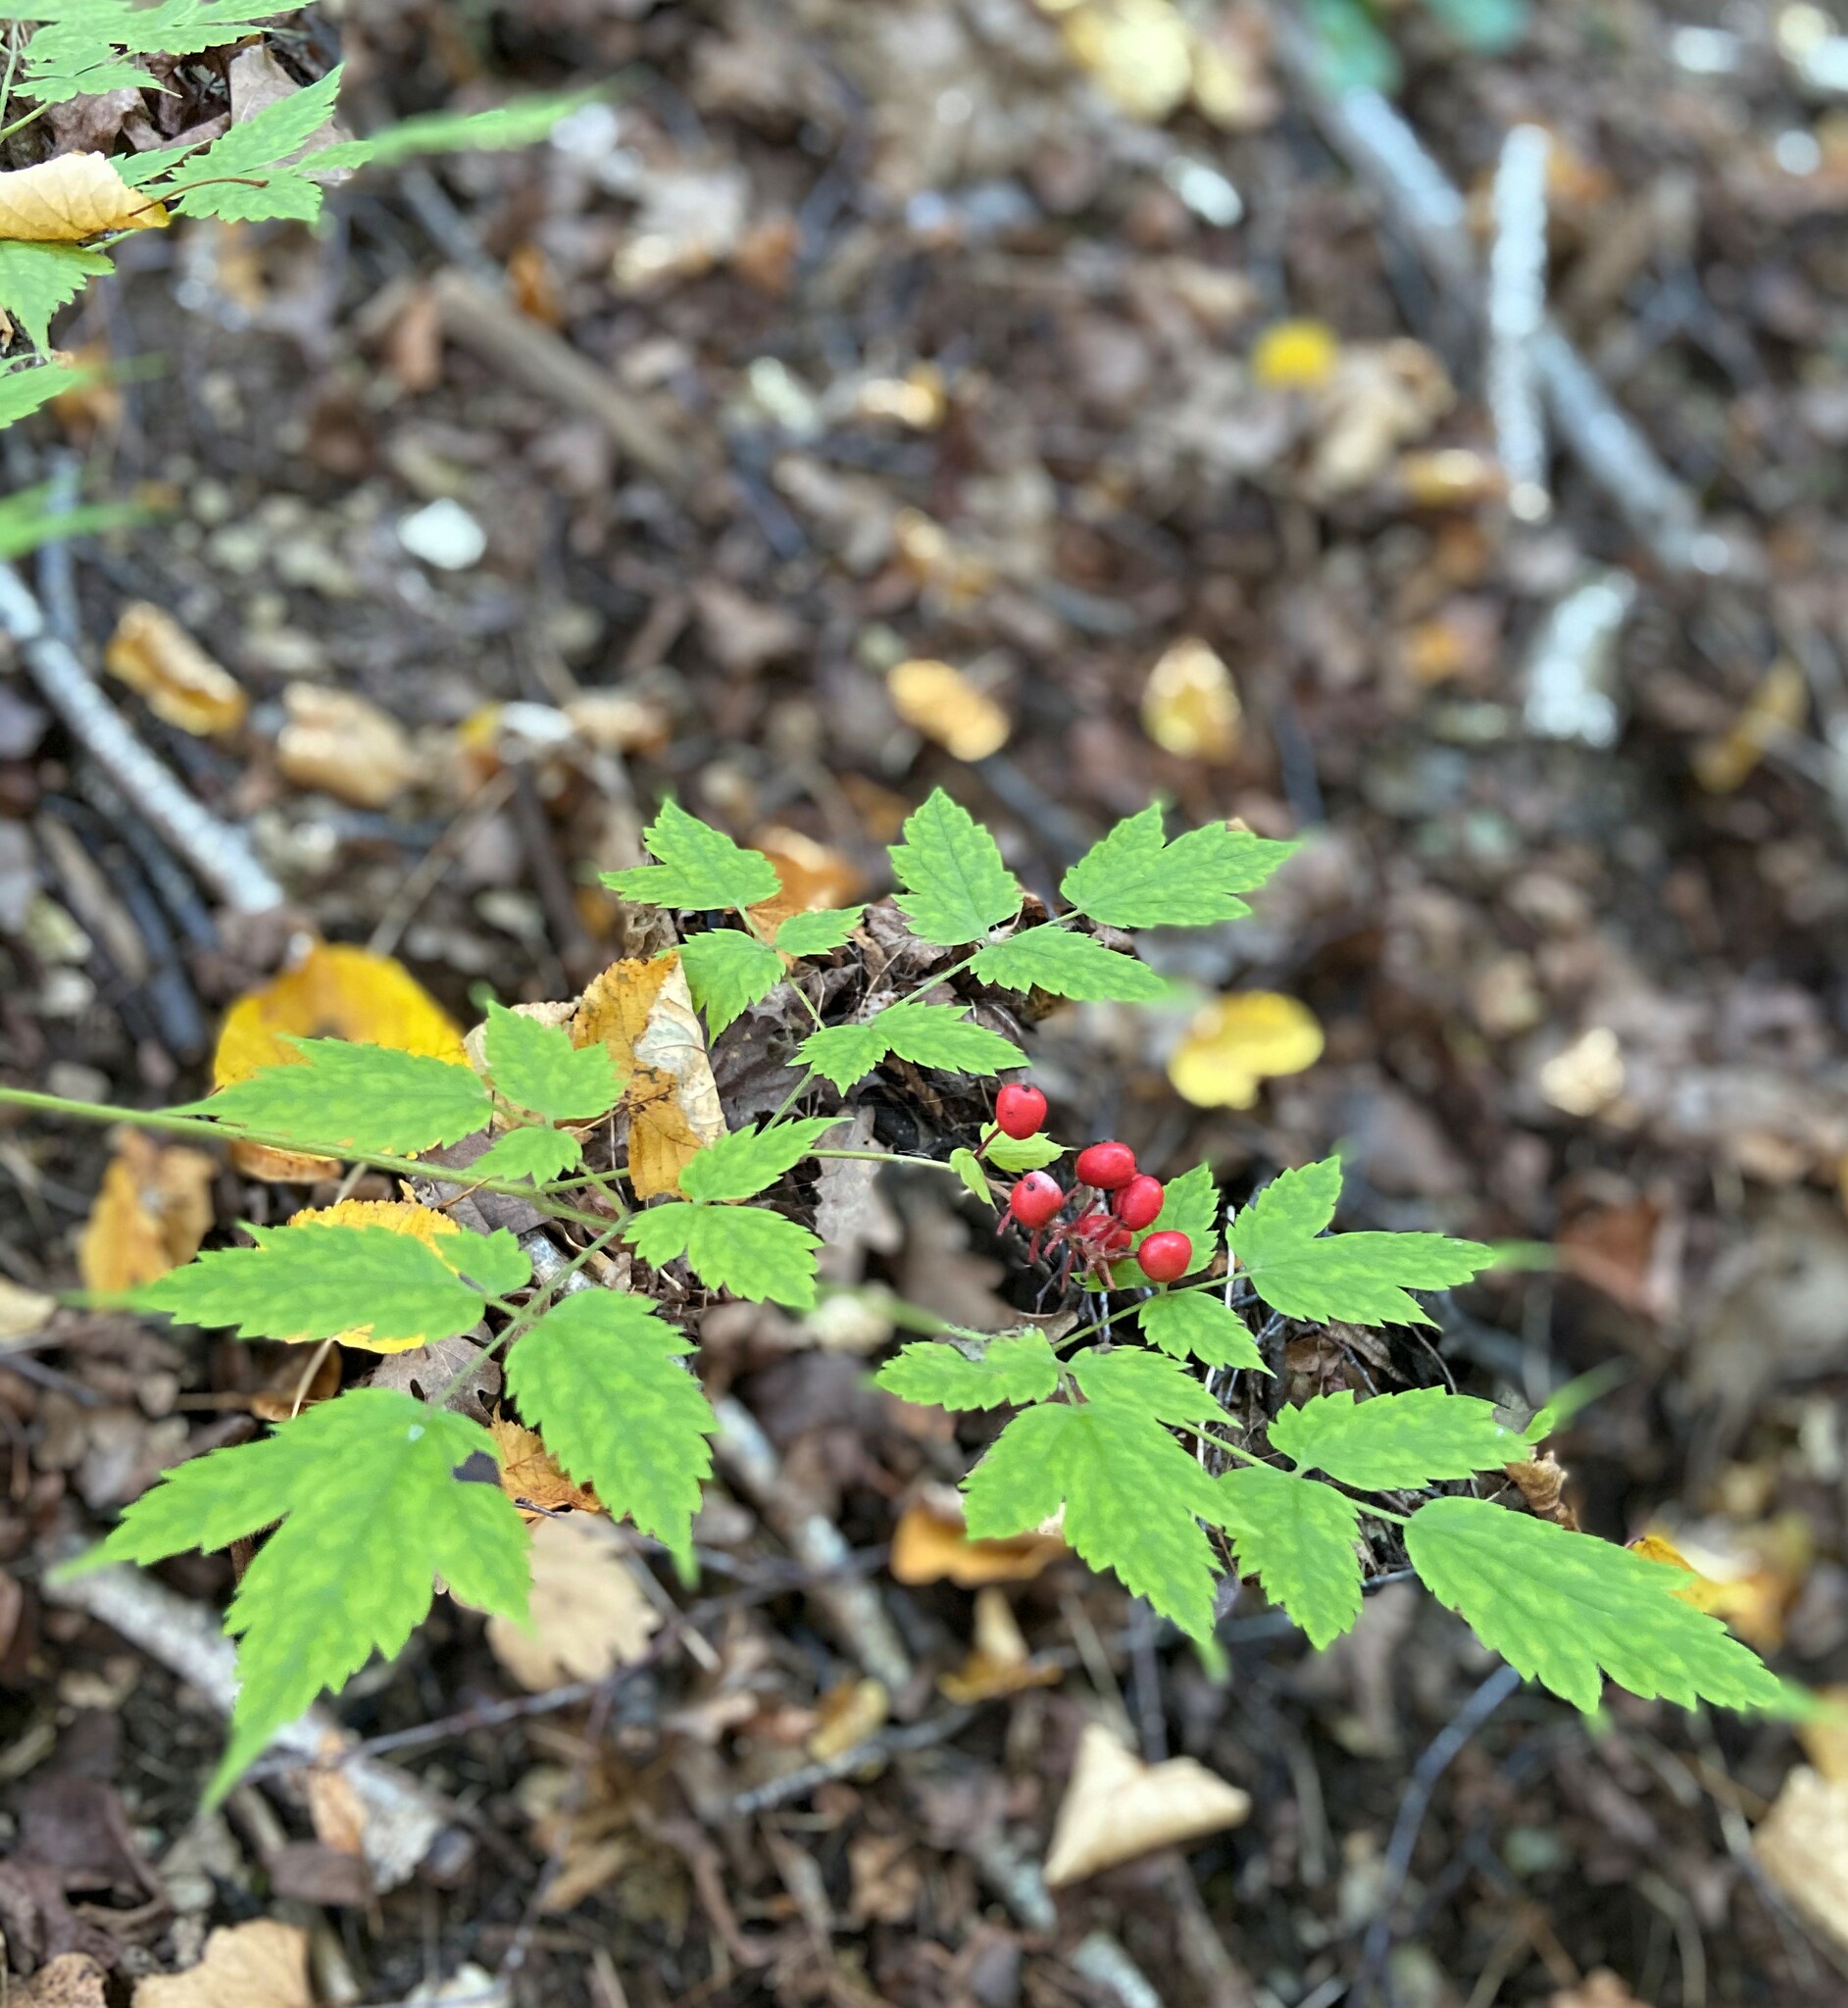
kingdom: Plantae
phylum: Tracheophyta
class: Magnoliopsida
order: Ranunculales
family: Ranunculaceae
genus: Actaea
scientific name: Actaea erythrocarpa
